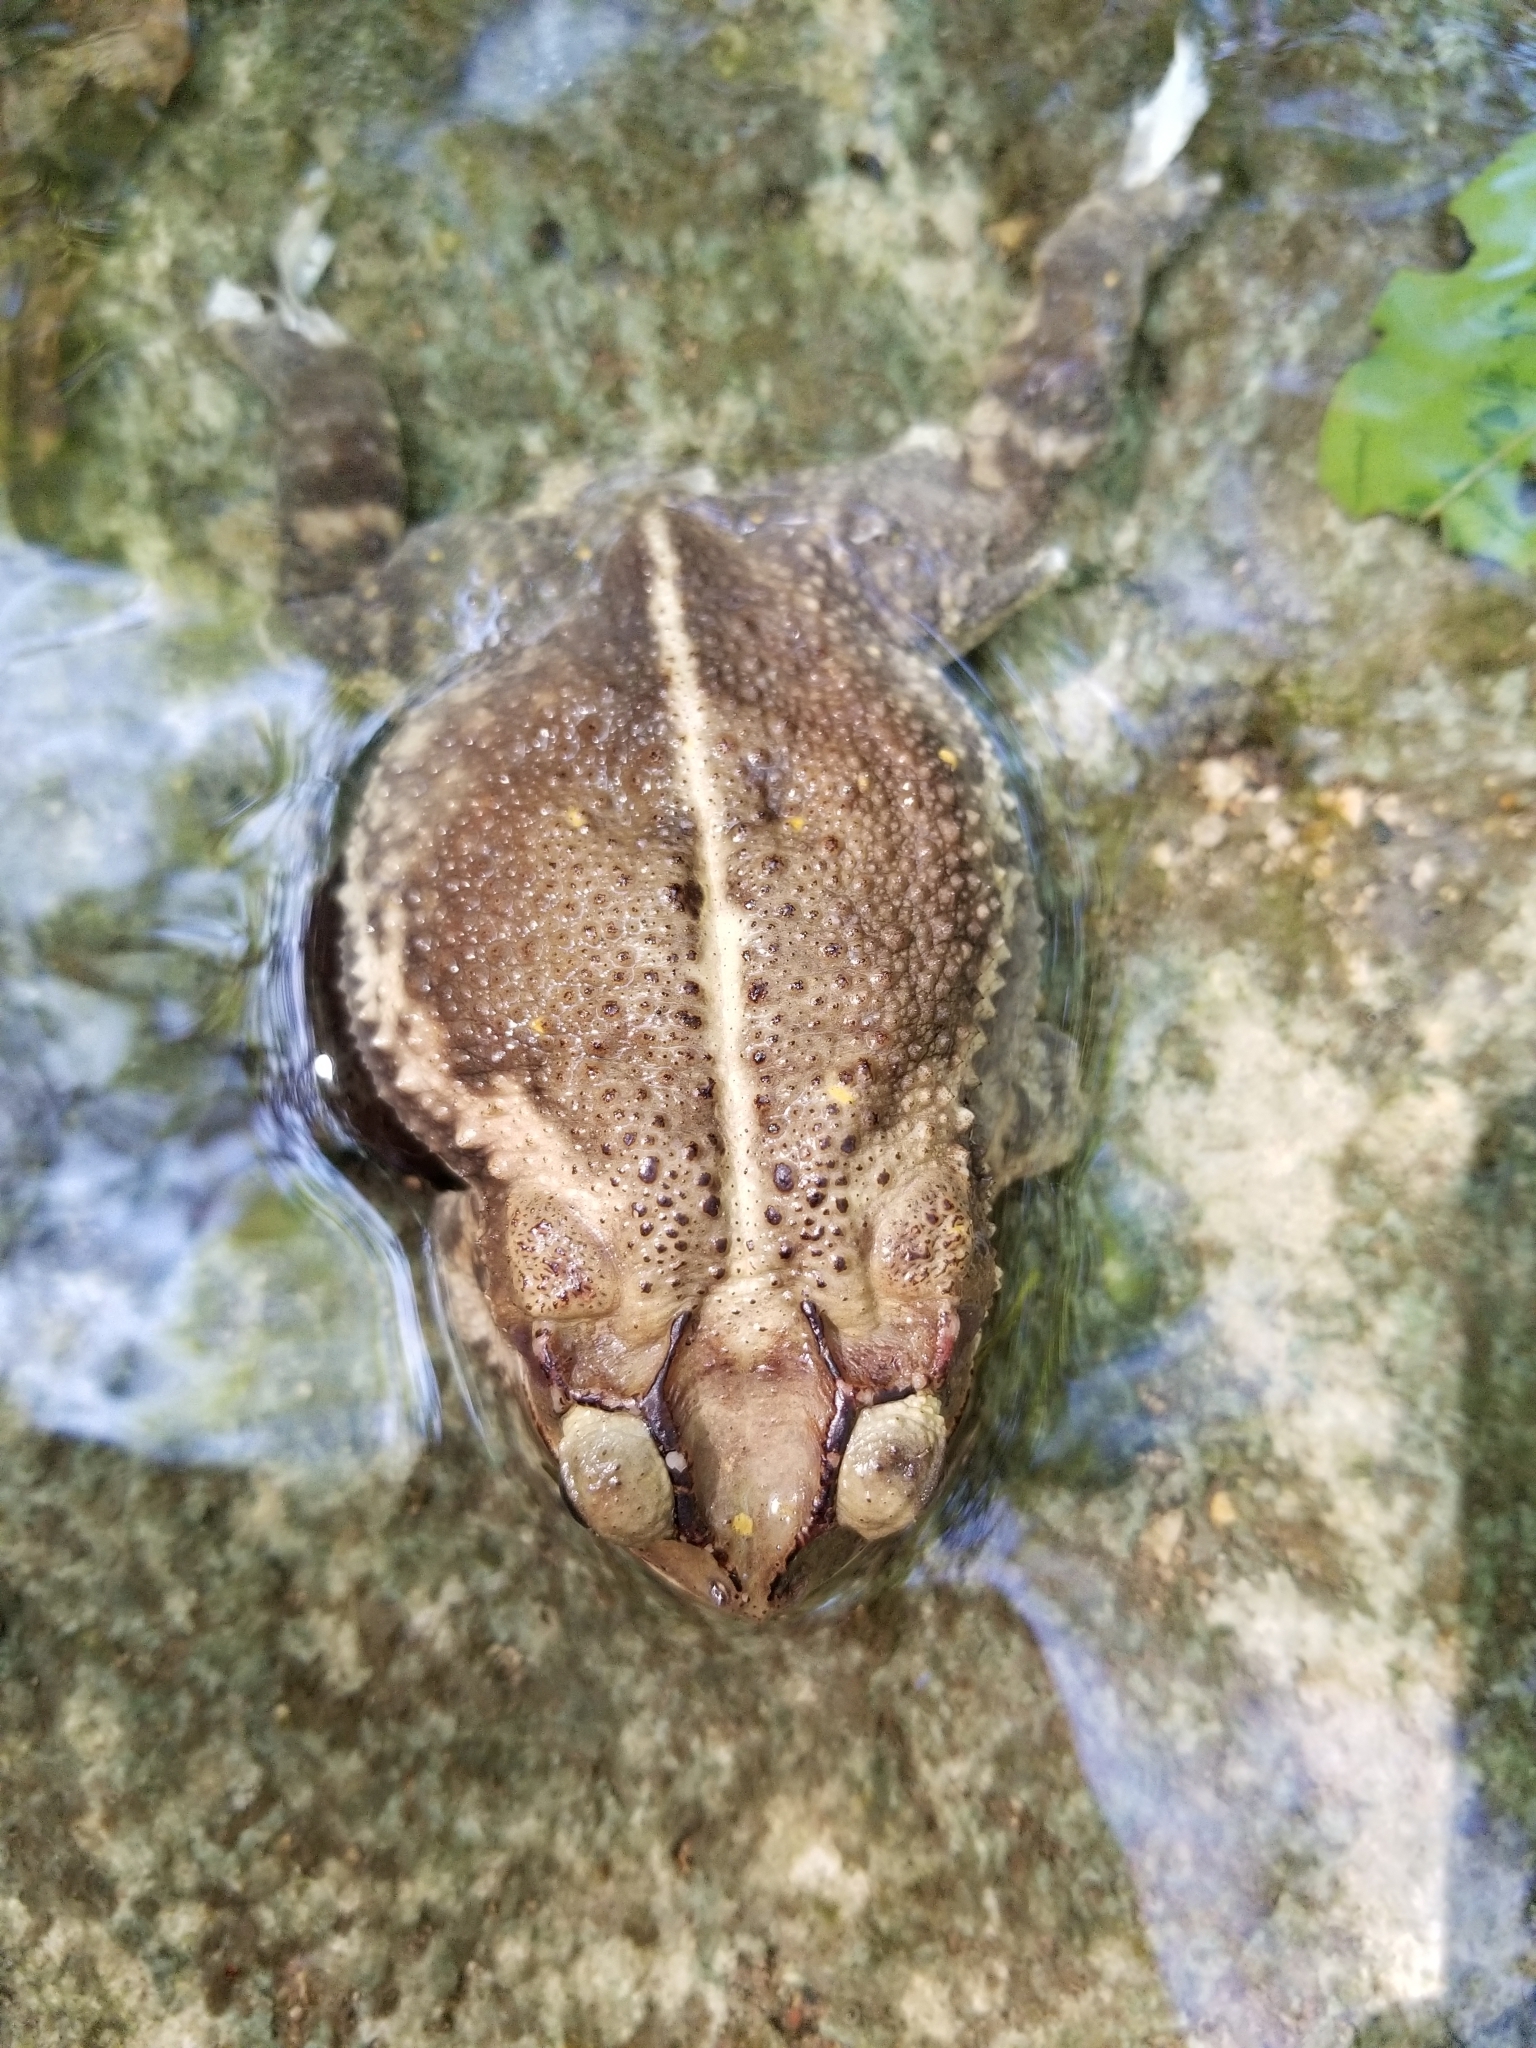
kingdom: Animalia
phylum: Chordata
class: Amphibia
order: Anura
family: Bufonidae
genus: Incilius
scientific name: Incilius nebulifer
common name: Gulf coast toad
